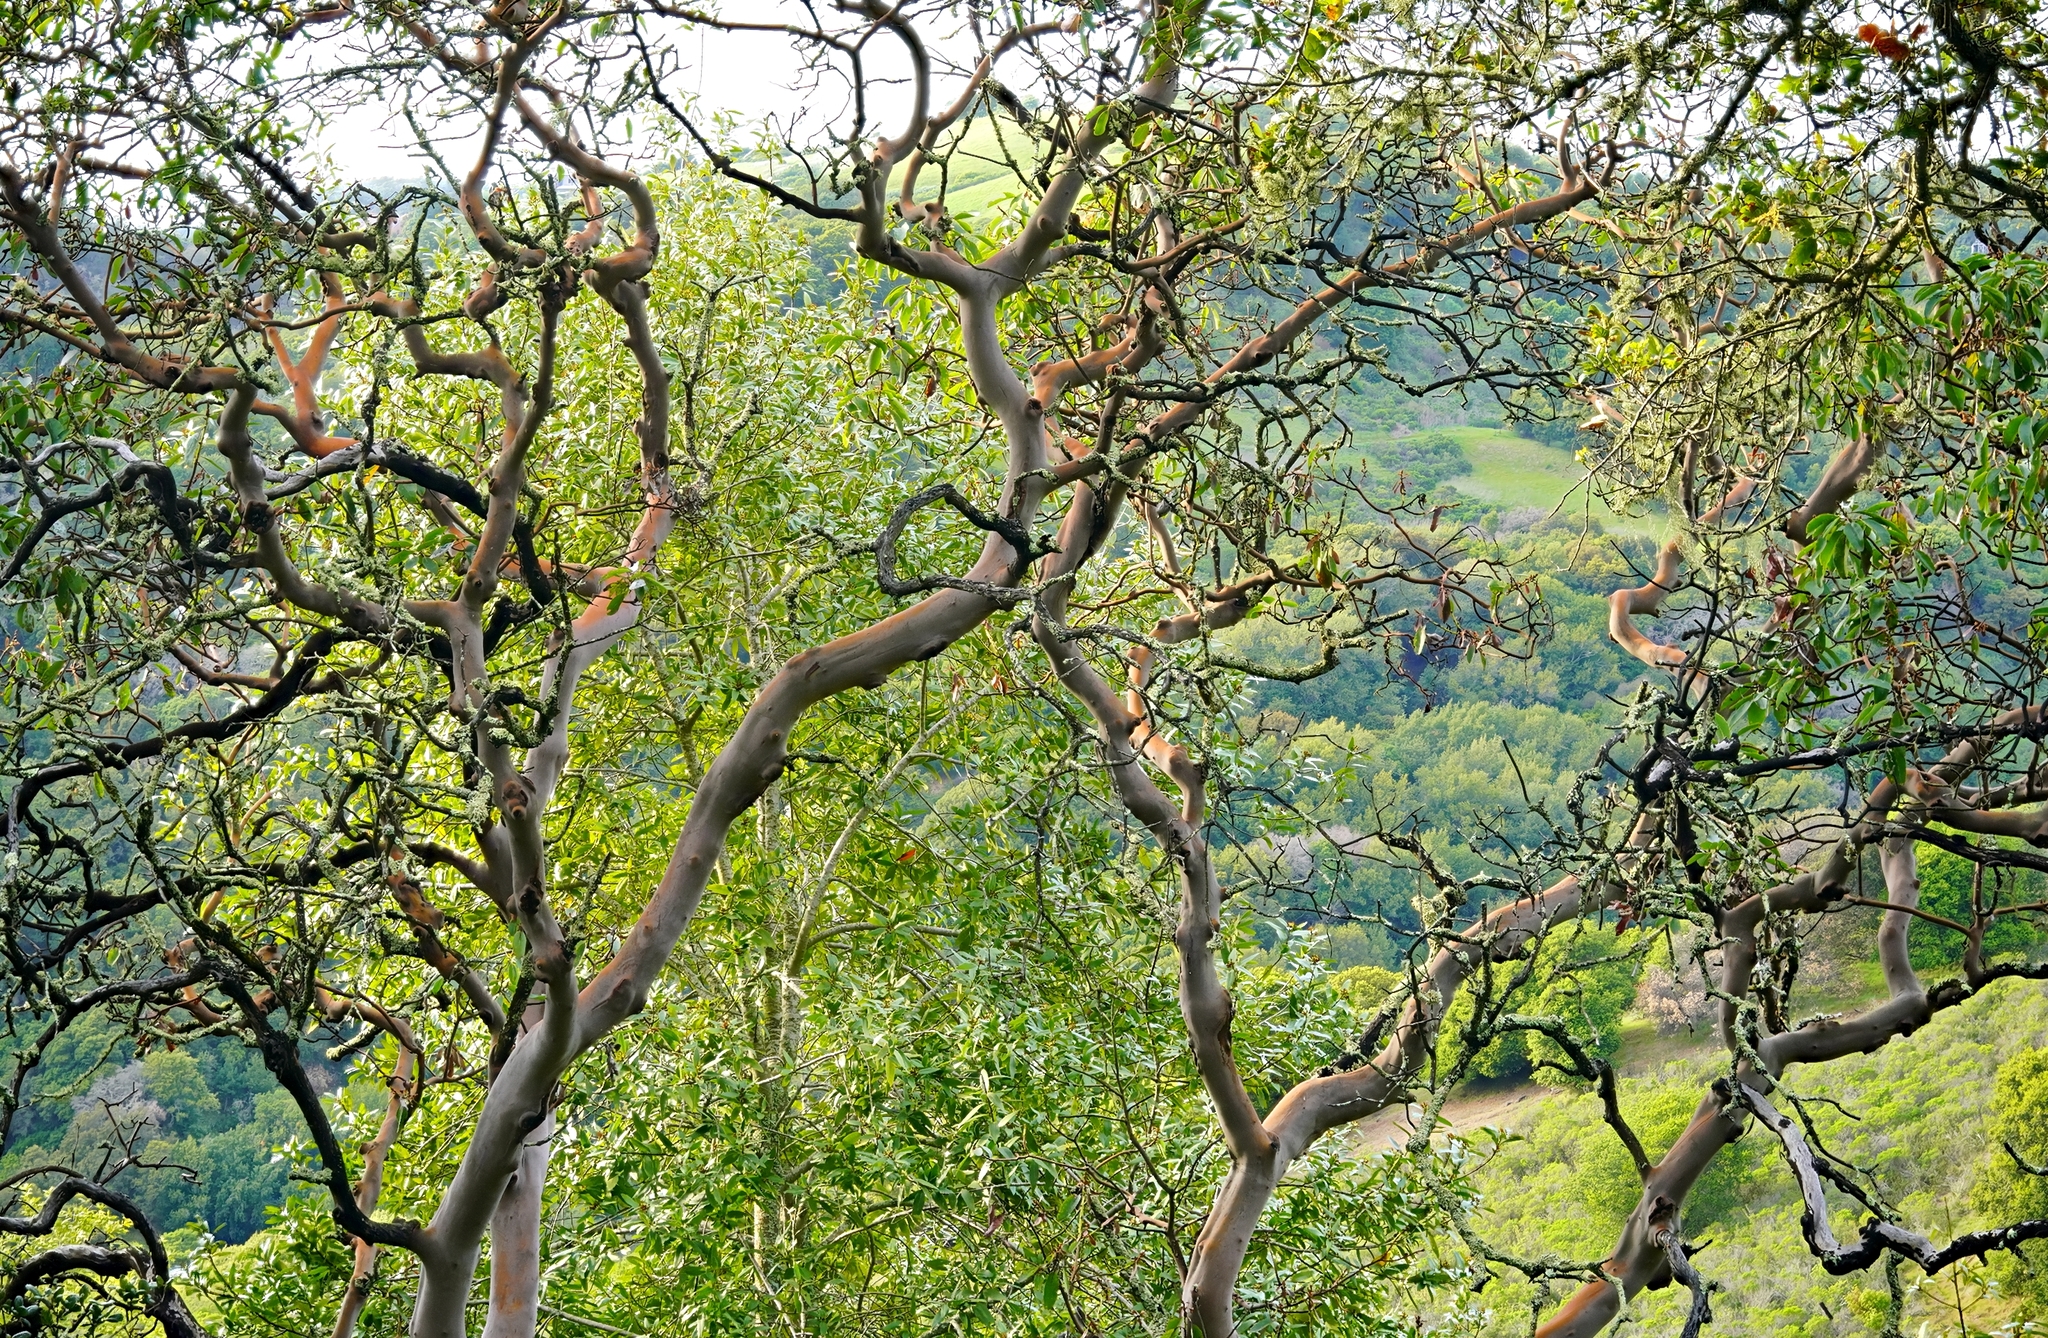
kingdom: Plantae
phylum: Tracheophyta
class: Magnoliopsida
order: Ericales
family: Ericaceae
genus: Arbutus
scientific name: Arbutus menziesii
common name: Pacific madrone
